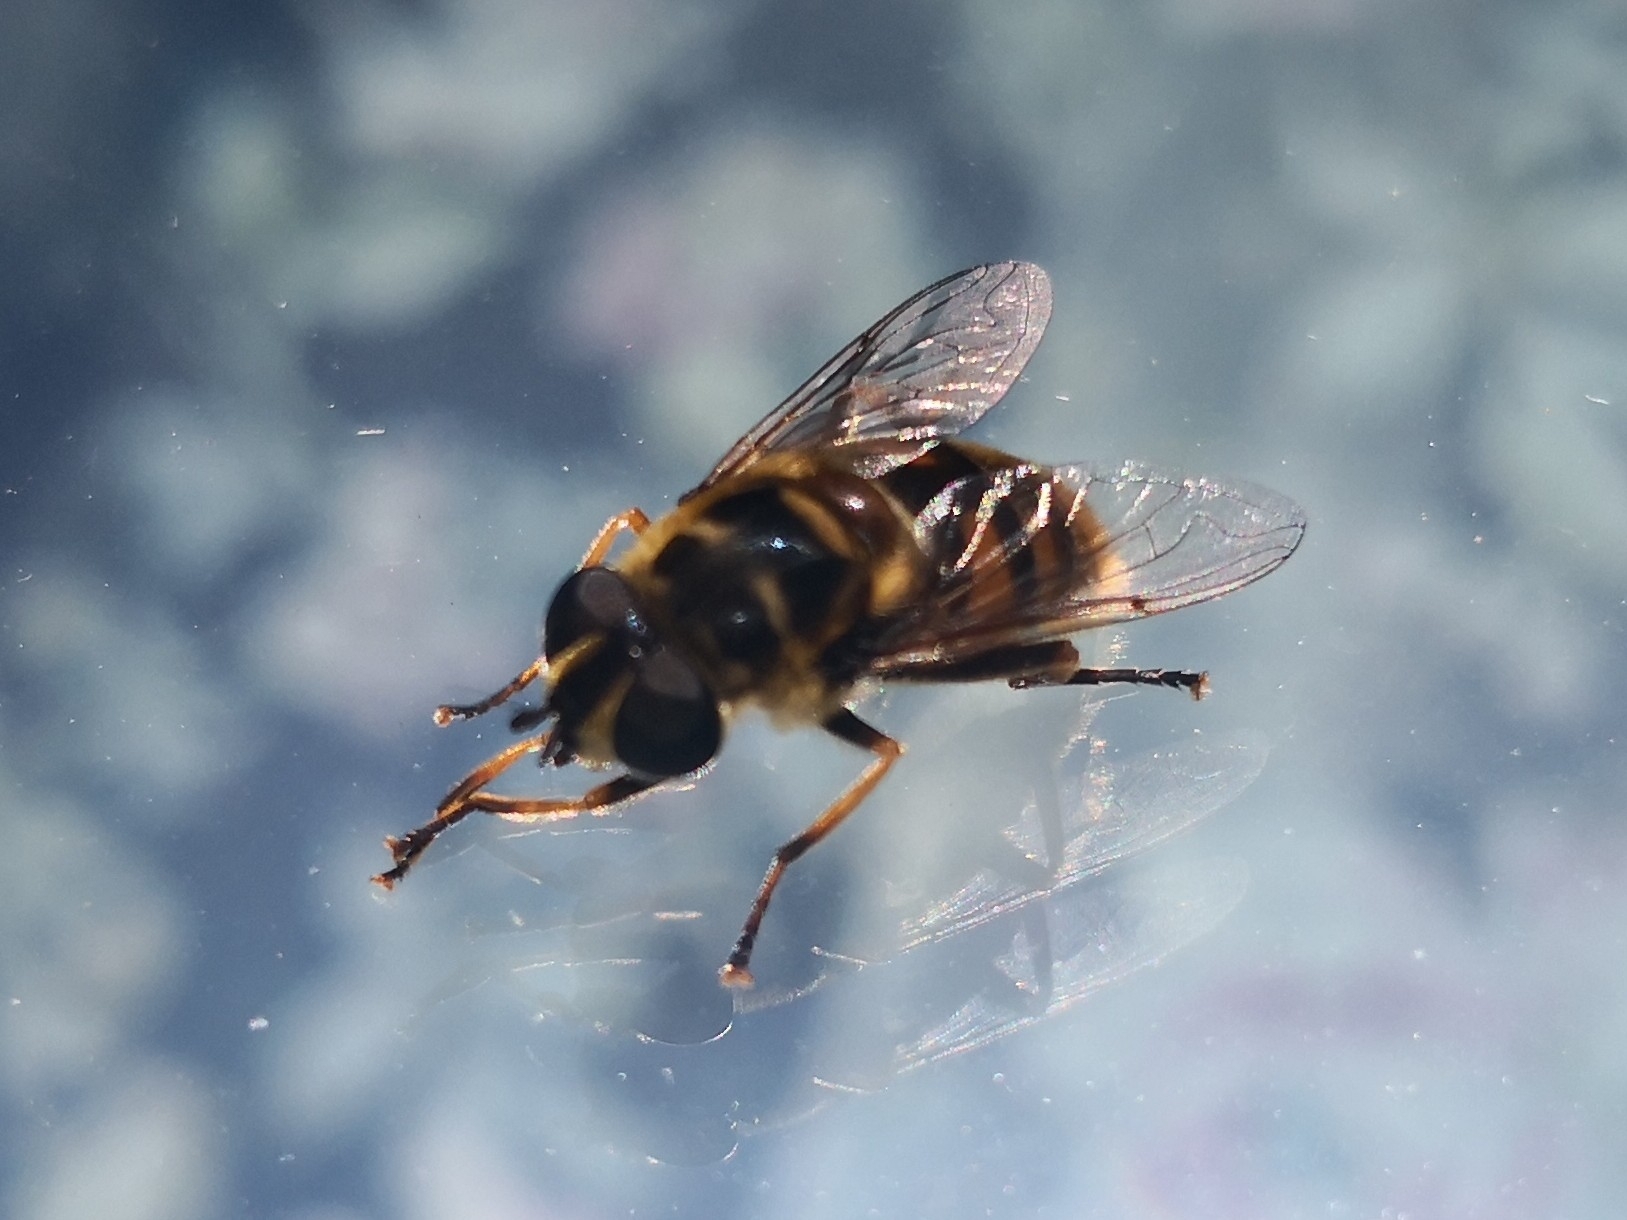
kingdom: Animalia
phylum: Arthropoda
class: Insecta
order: Diptera
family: Syrphidae
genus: Myathropa
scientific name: Myathropa florea
